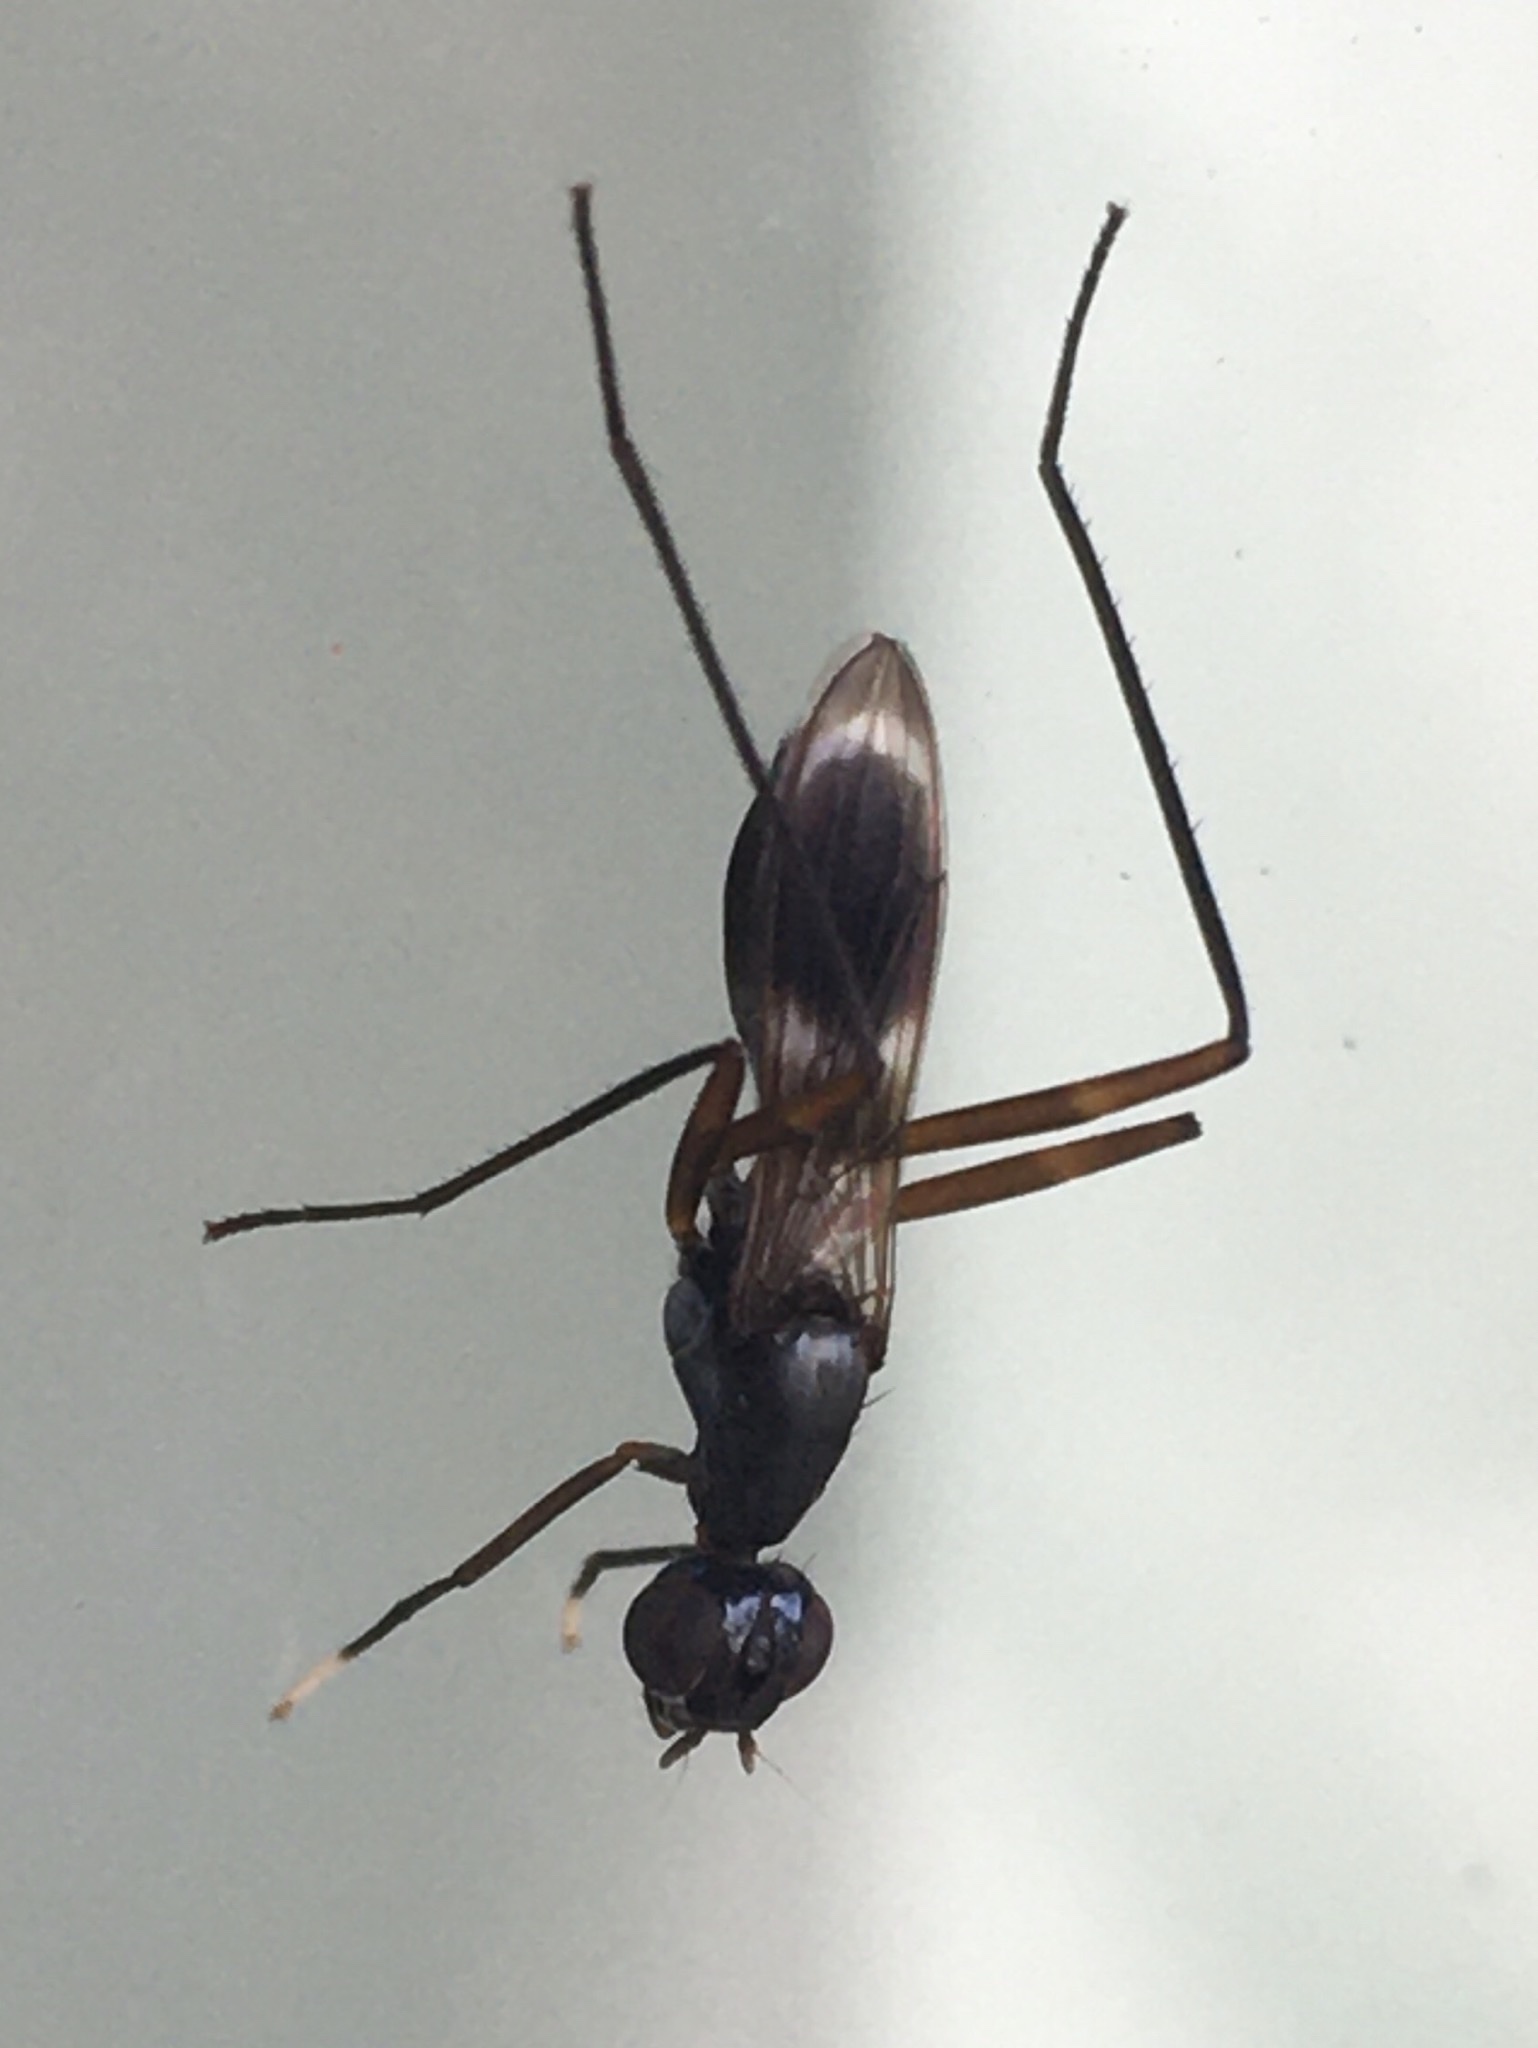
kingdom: Animalia
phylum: Arthropoda
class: Insecta
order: Diptera
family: Micropezidae
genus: Taeniaptera
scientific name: Taeniaptera trivittata
